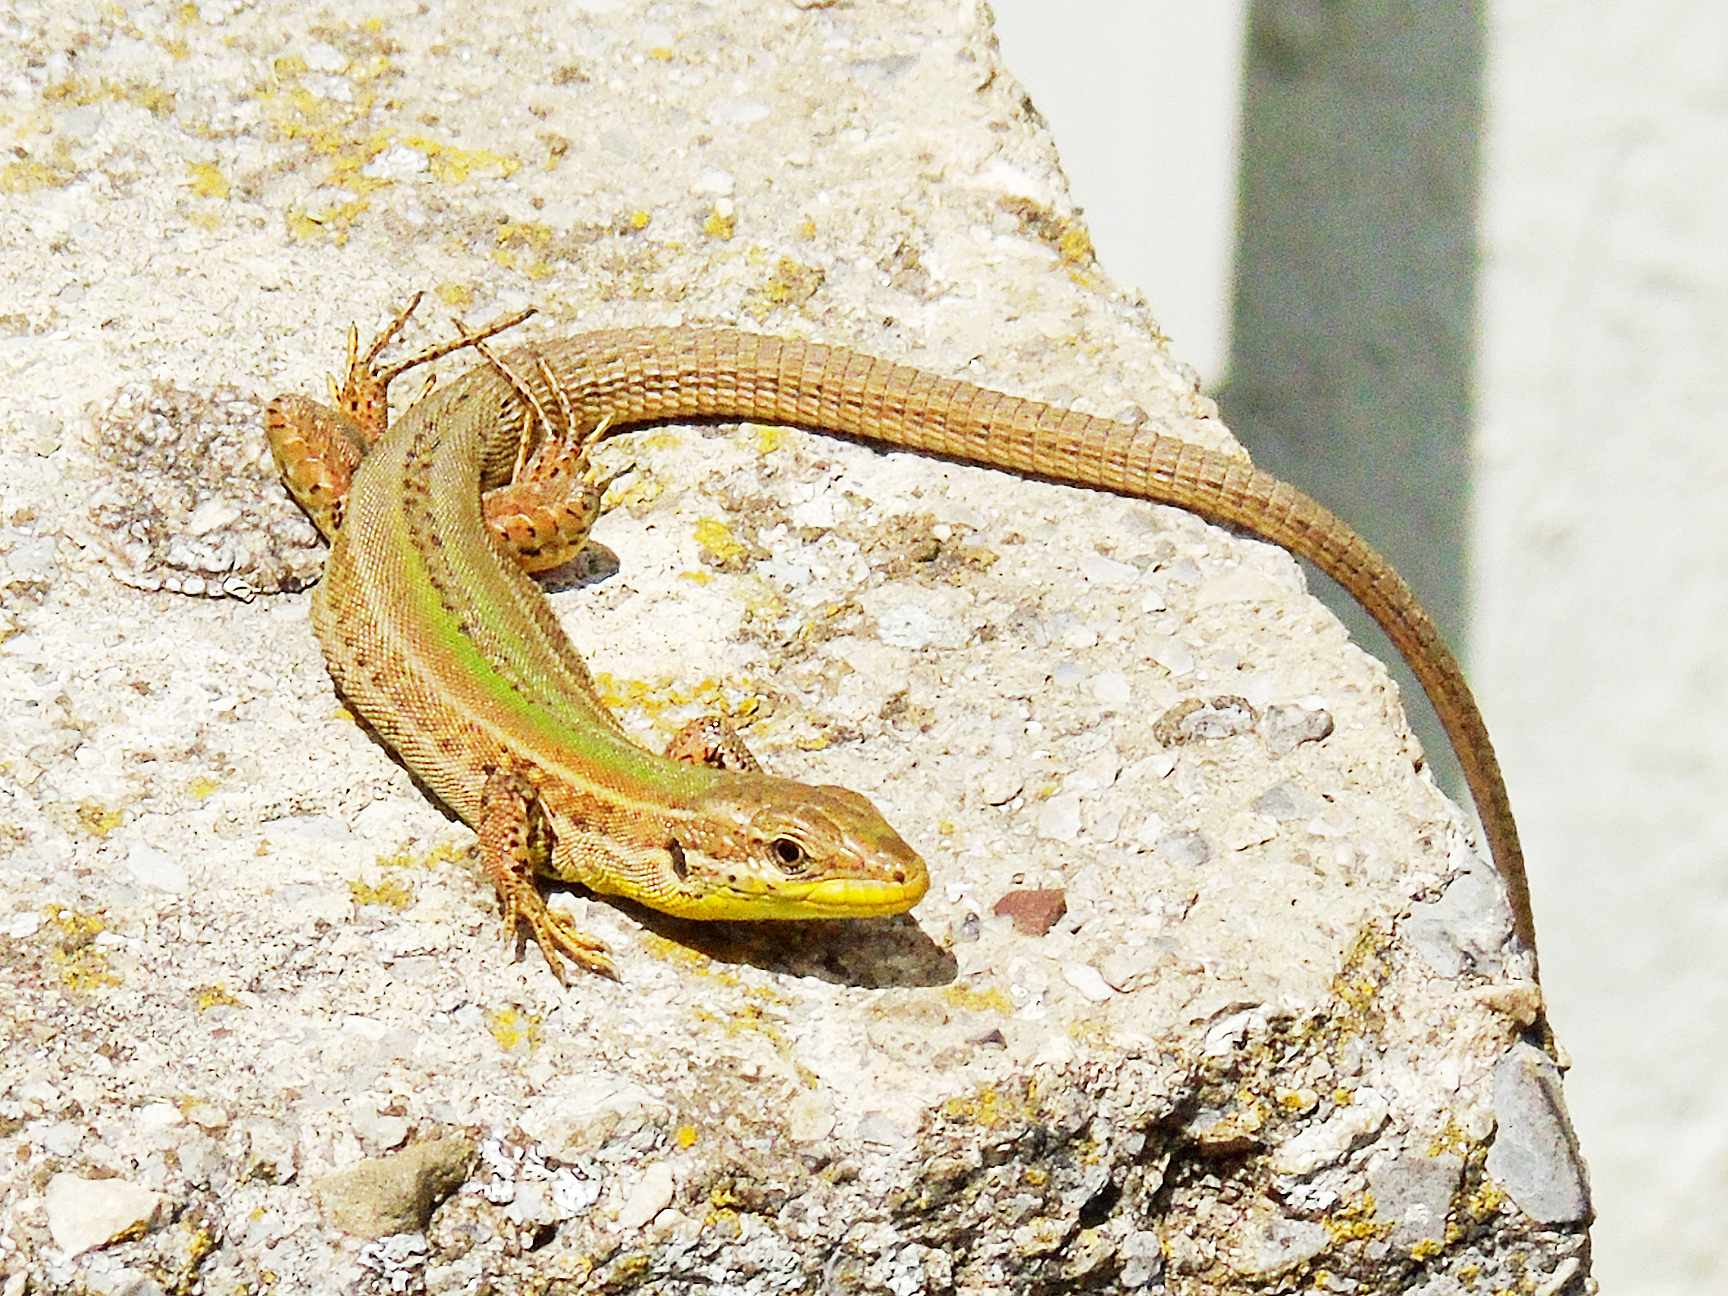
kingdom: Animalia
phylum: Chordata
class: Squamata
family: Lacertidae
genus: Podarcis
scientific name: Podarcis melisellensis
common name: Dalmatian wall lizard
